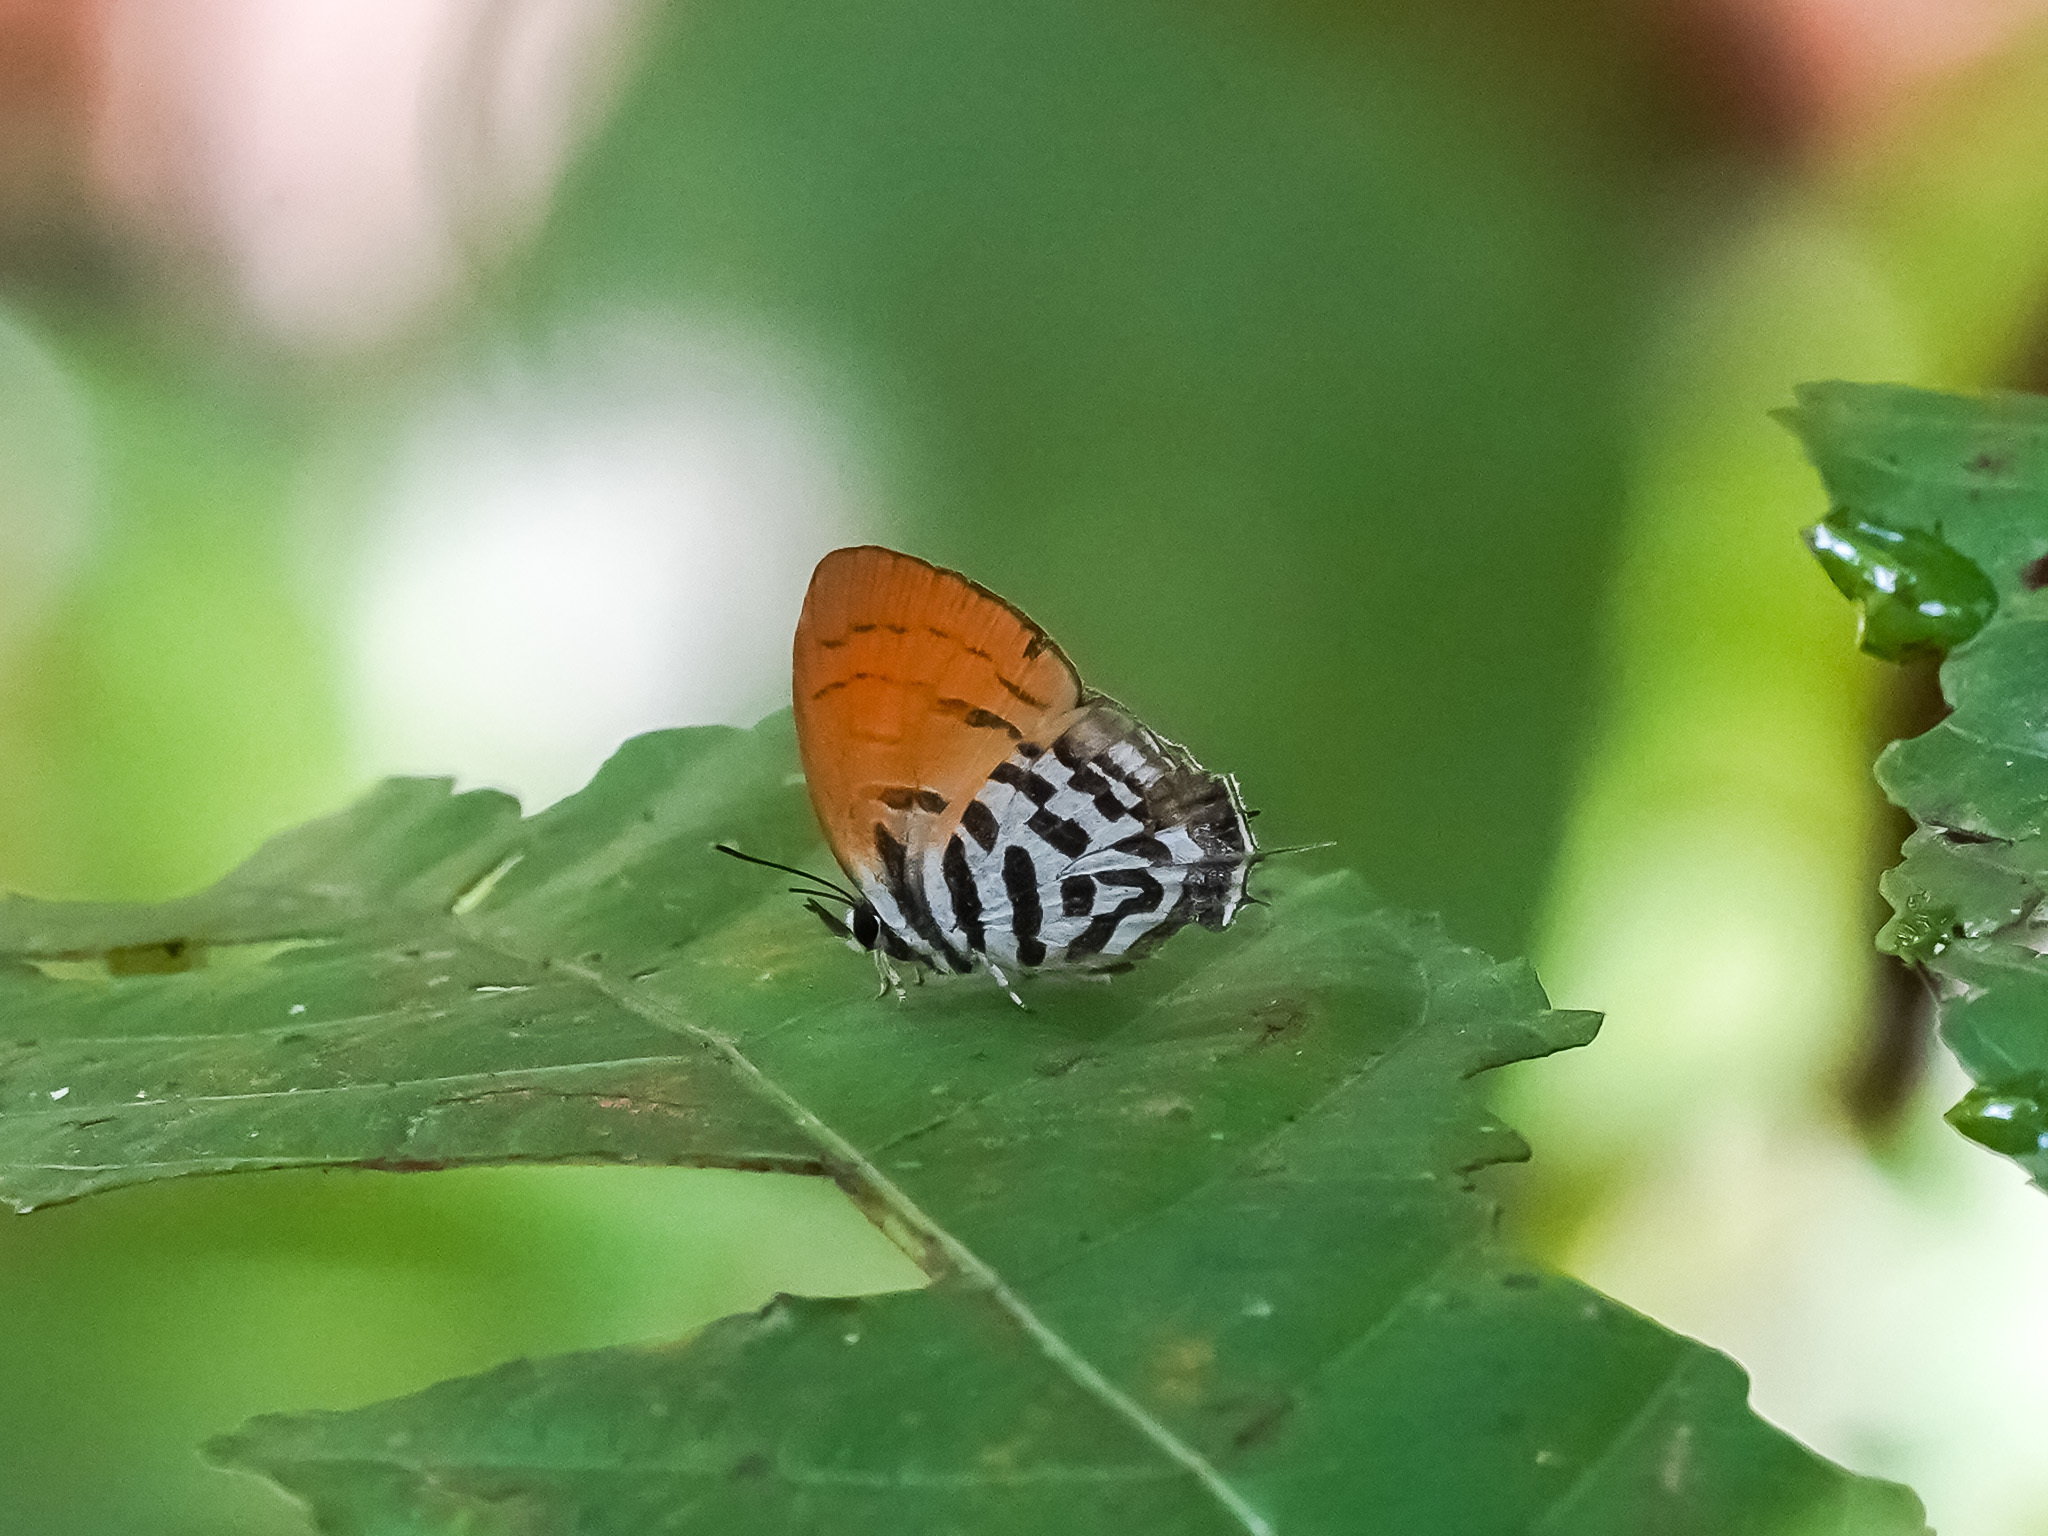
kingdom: Animalia
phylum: Arthropoda
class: Insecta
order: Lepidoptera
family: Lycaenidae
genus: Drupadia
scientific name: Drupadia ravindra
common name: Common posy
